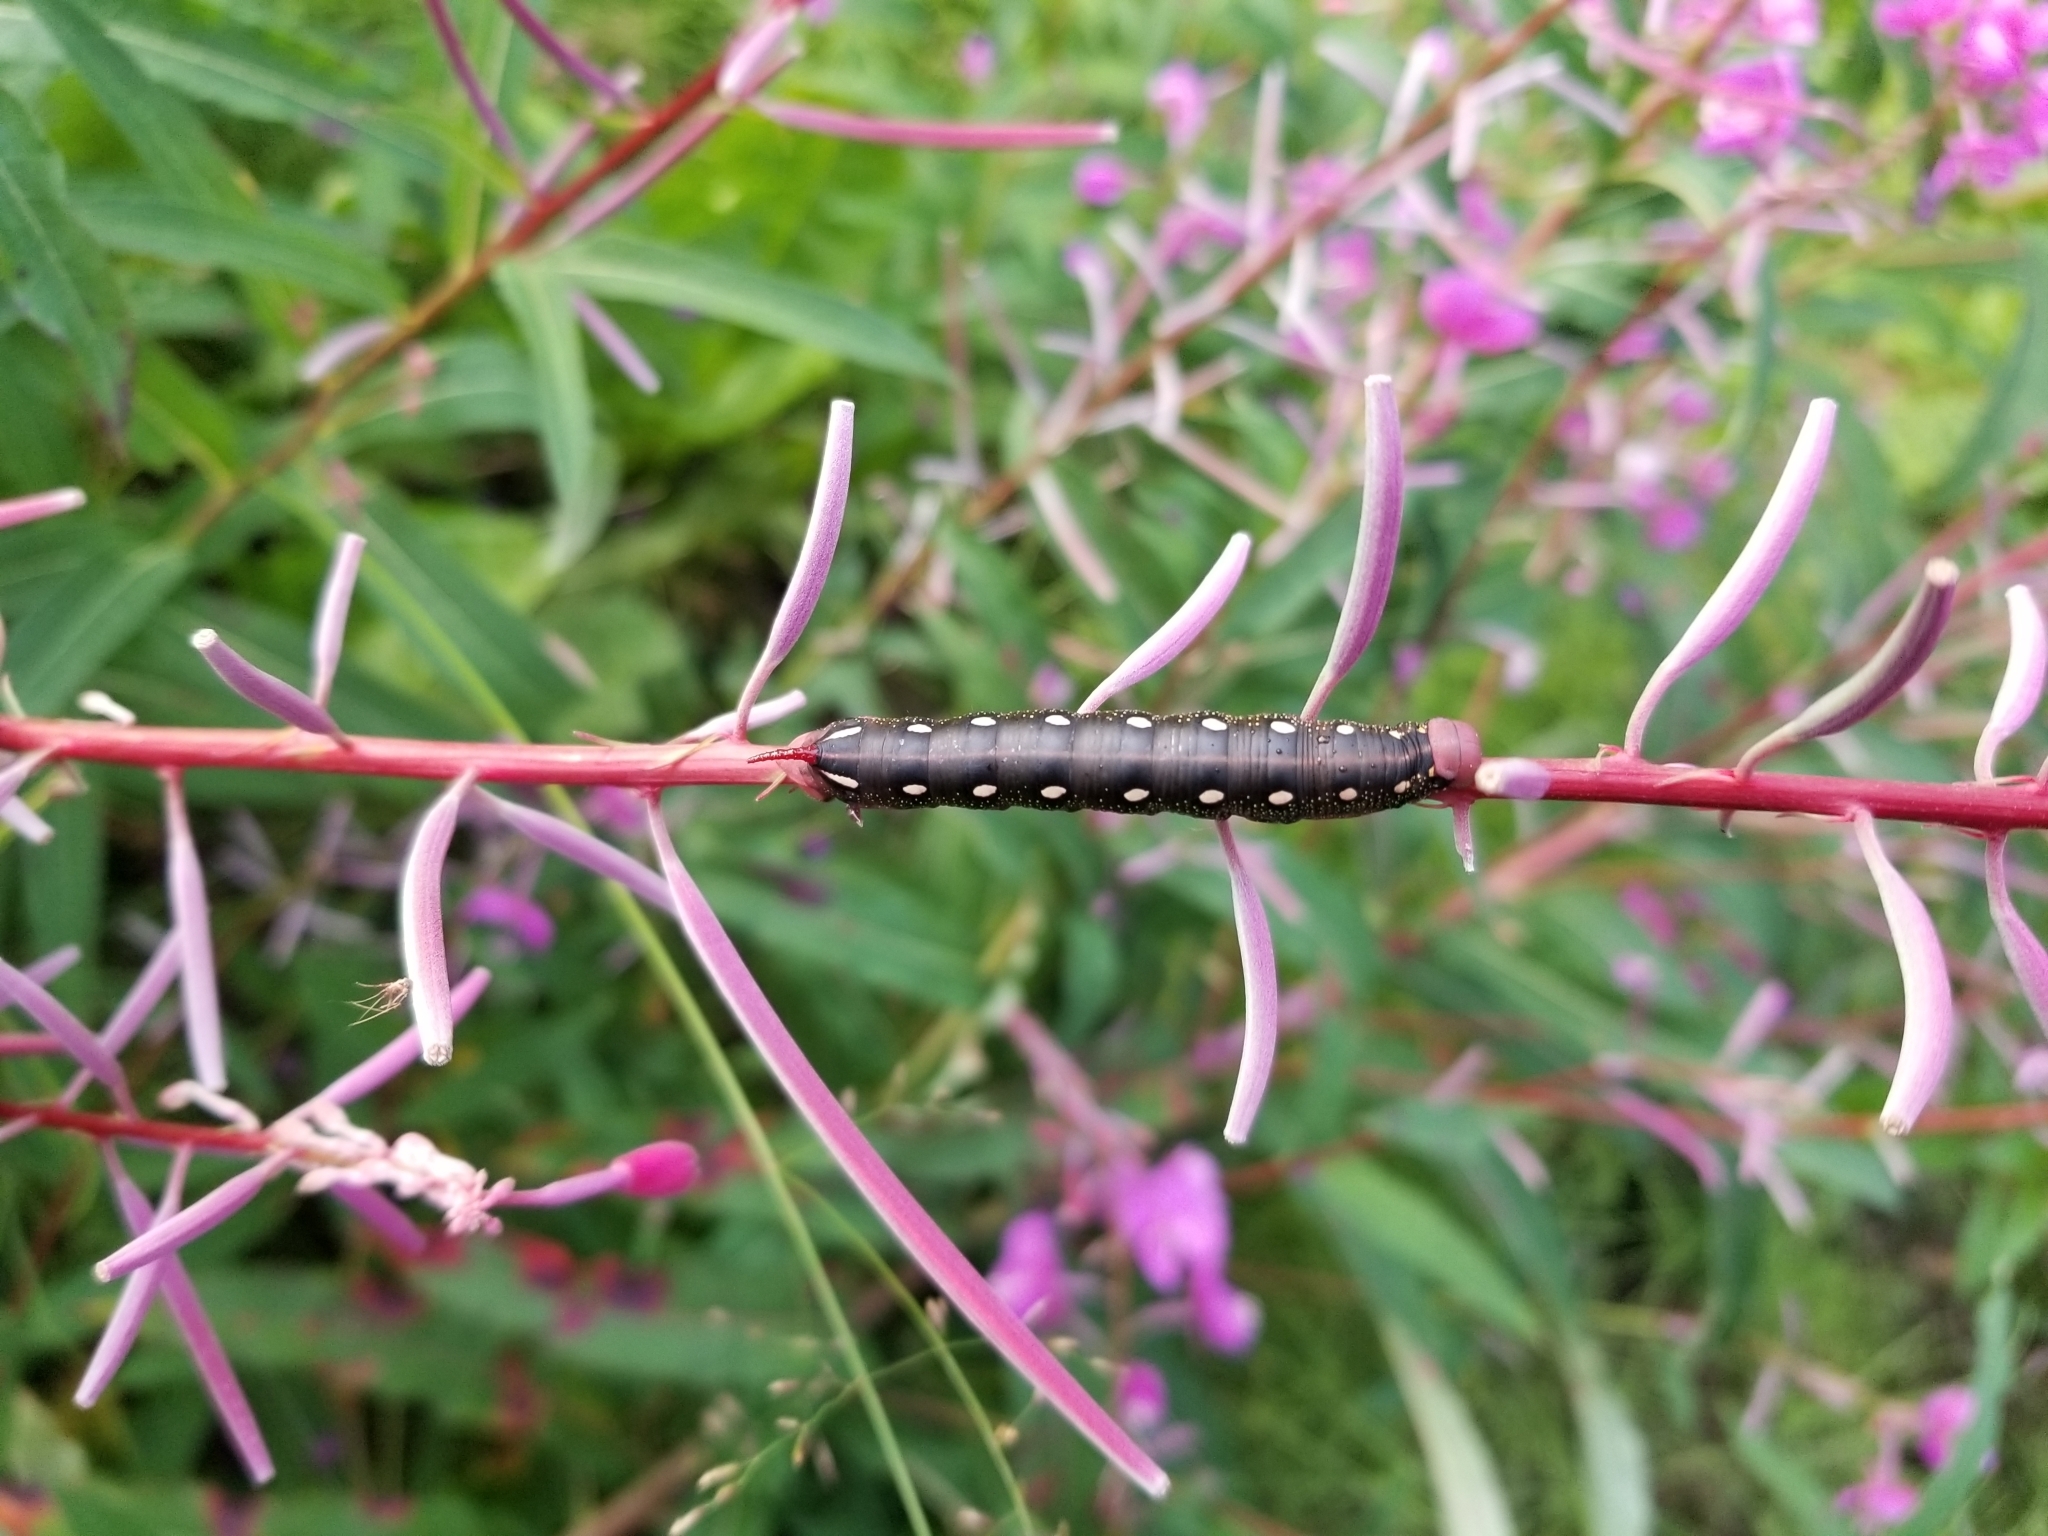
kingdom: Animalia
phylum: Arthropoda
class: Insecta
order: Lepidoptera
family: Sphingidae
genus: Hyles
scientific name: Hyles gallii
